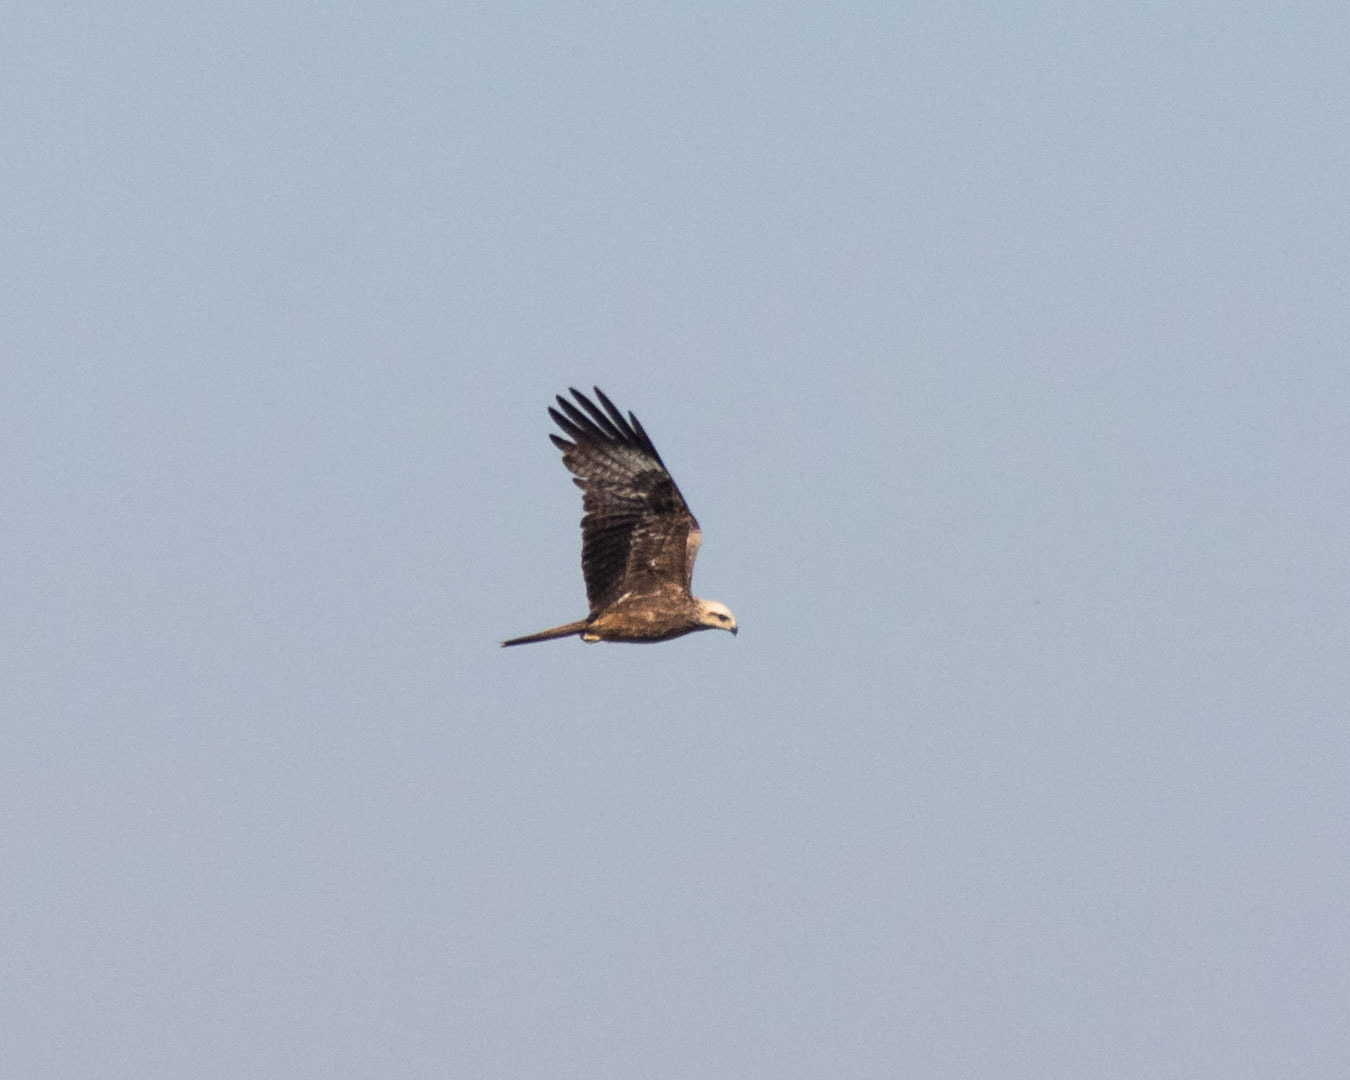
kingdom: Animalia
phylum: Chordata
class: Aves
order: Accipitriformes
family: Accipitridae
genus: Milvus
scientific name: Milvus migrans
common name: Black kite
